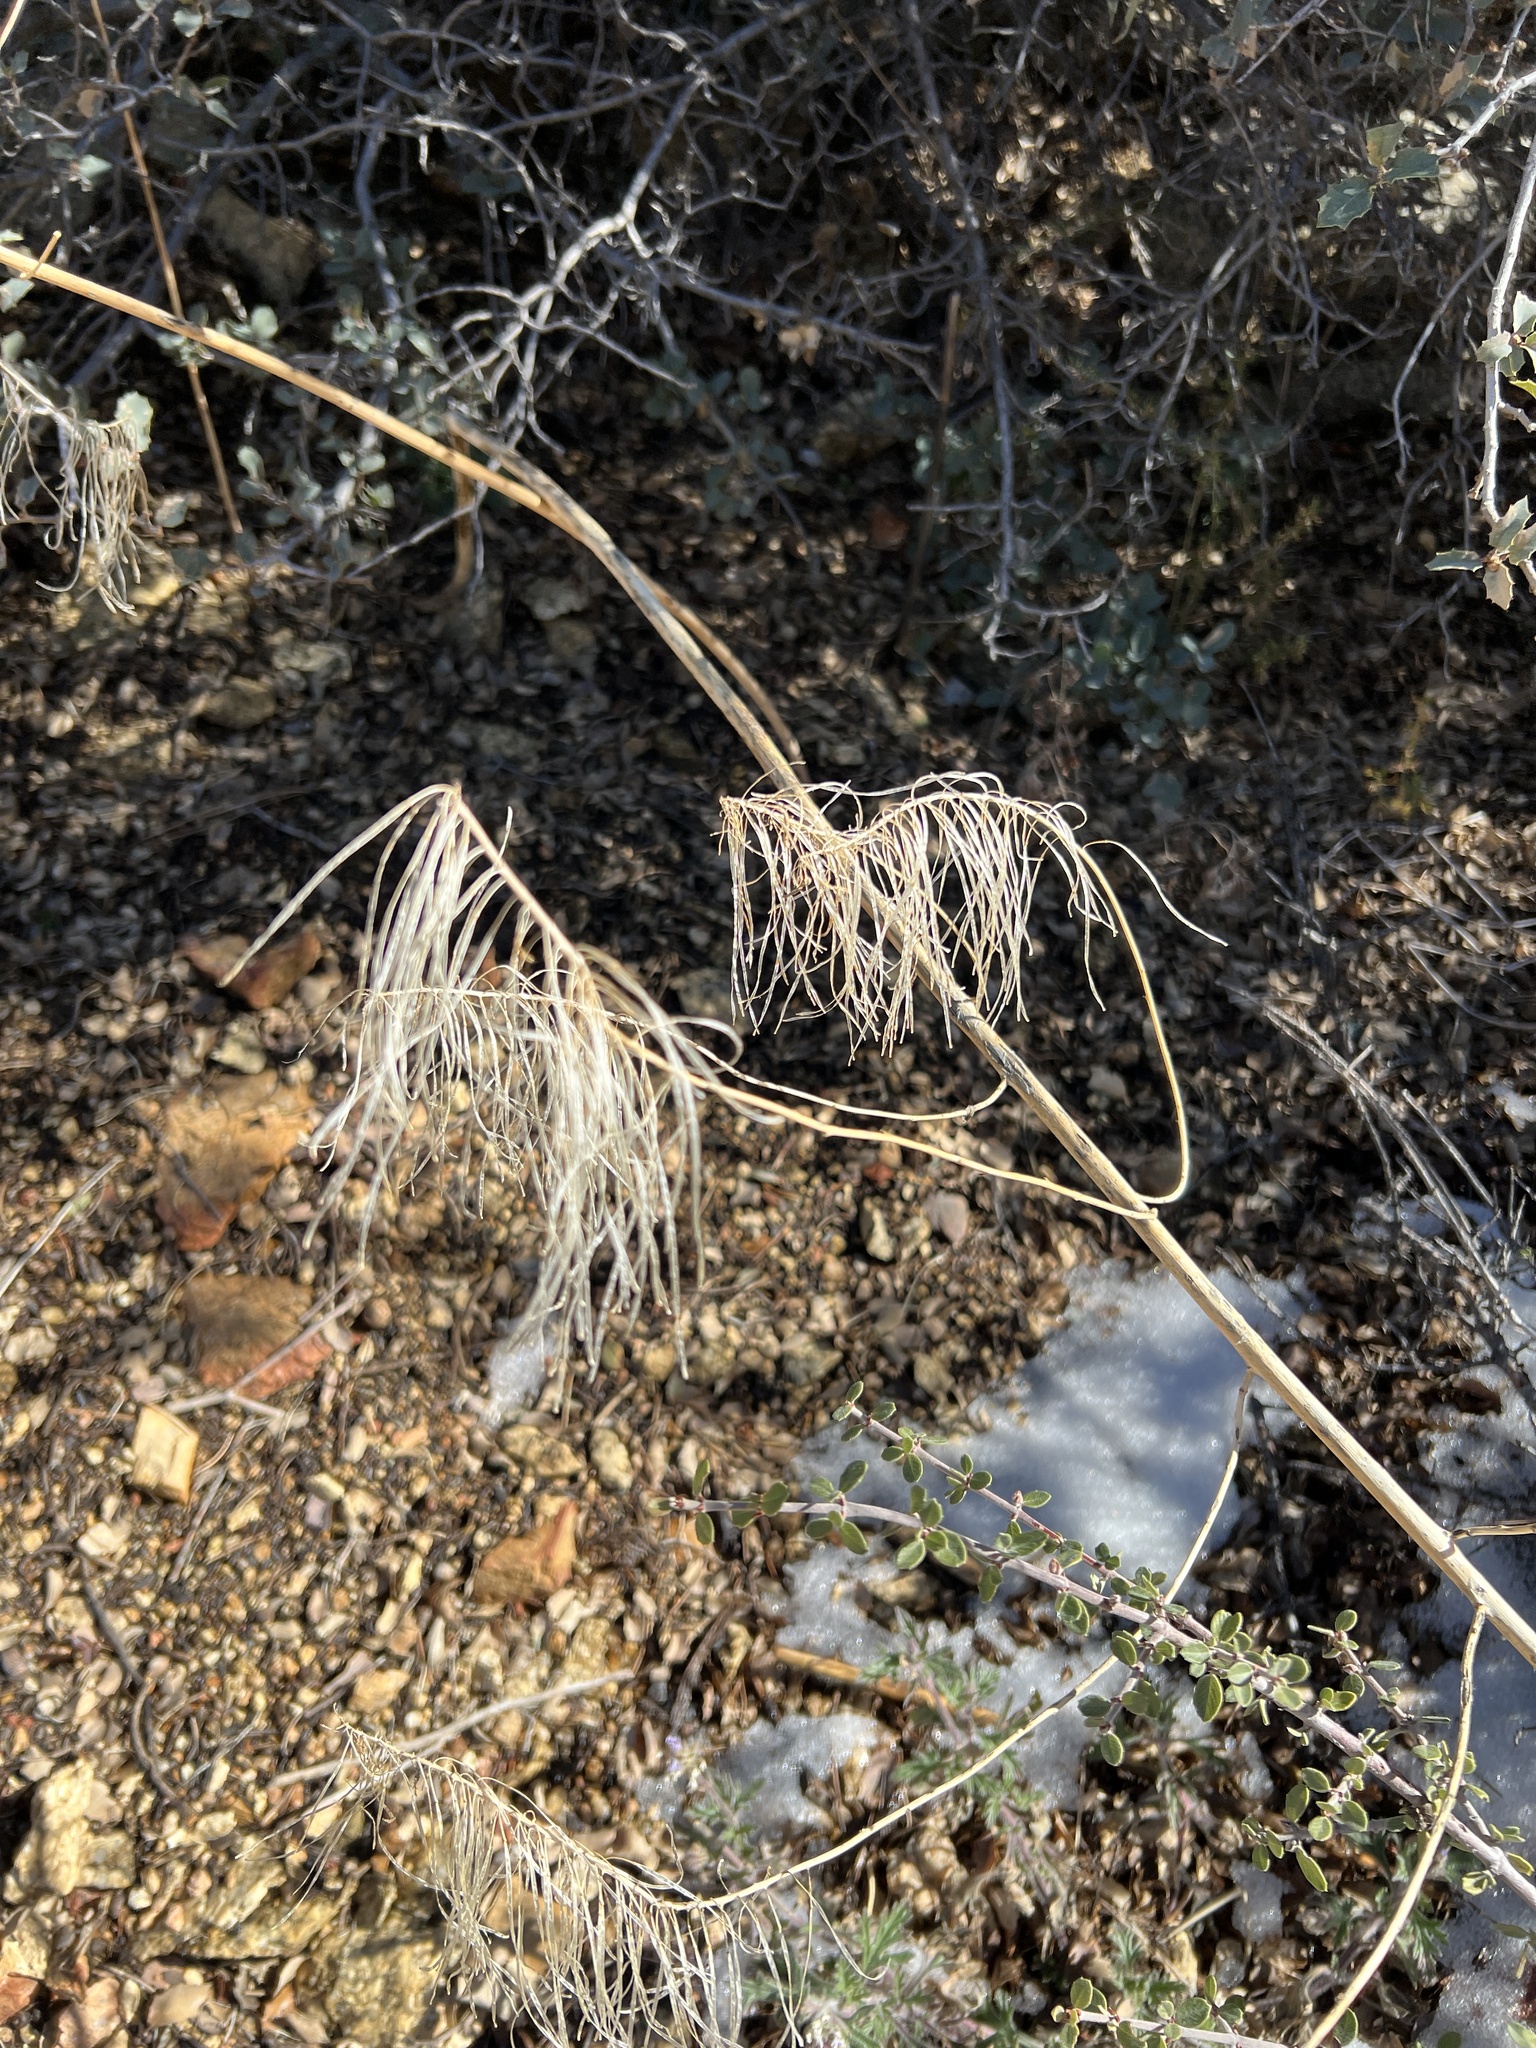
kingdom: Plantae
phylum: Tracheophyta
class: Magnoliopsida
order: Brassicales
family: Brassicaceae
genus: Stanleya
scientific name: Stanleya pinnata
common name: Prince's-plume
